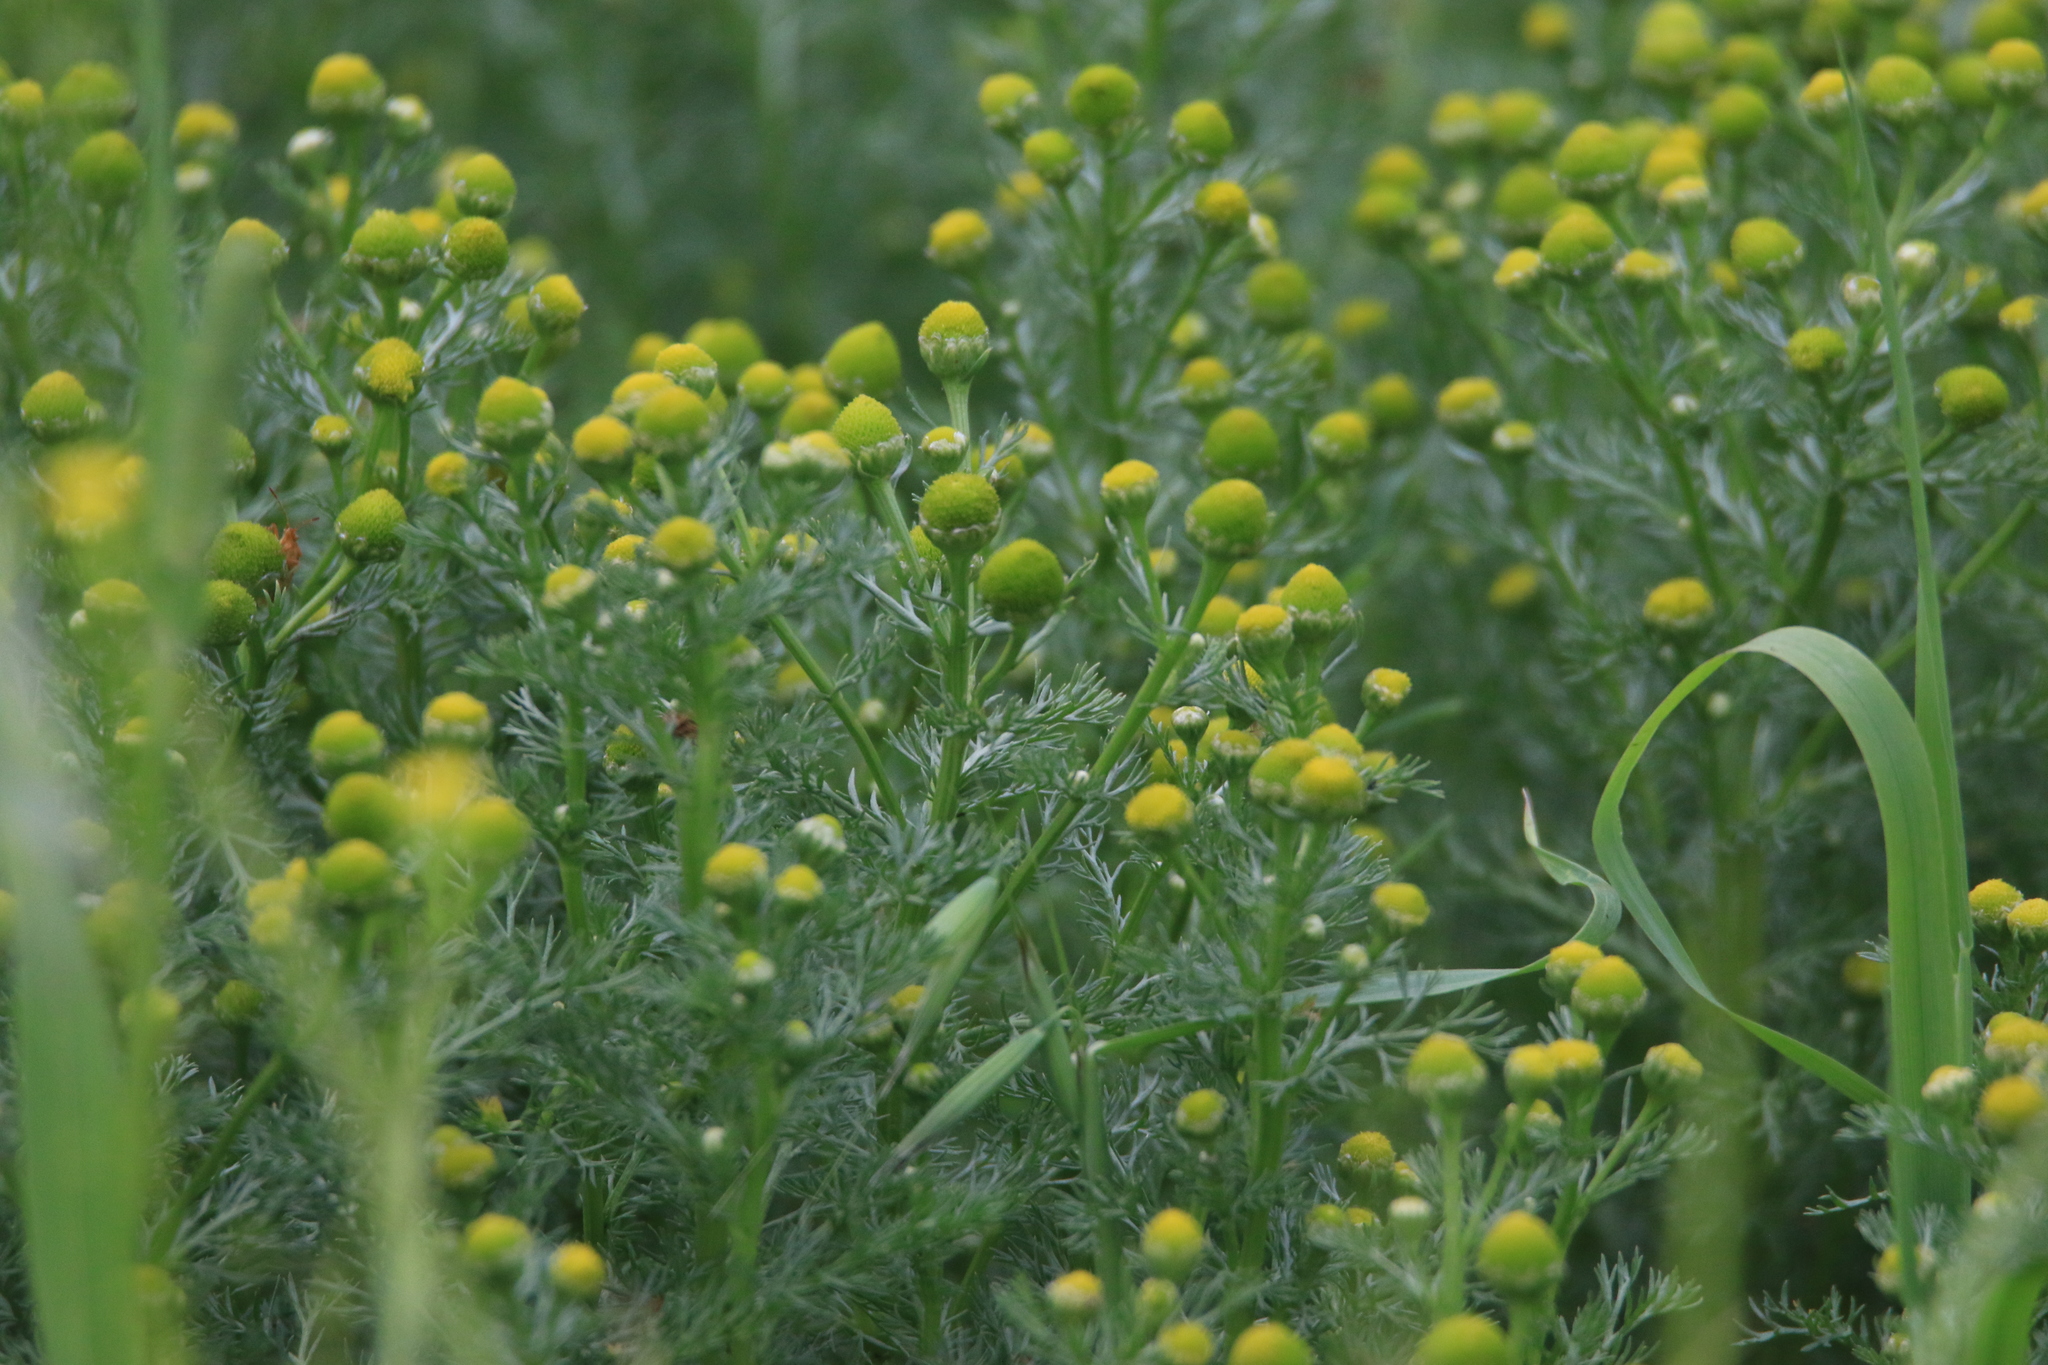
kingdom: Plantae
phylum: Tracheophyta
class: Magnoliopsida
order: Asterales
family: Asteraceae
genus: Matricaria
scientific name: Matricaria discoidea
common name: Disc mayweed
